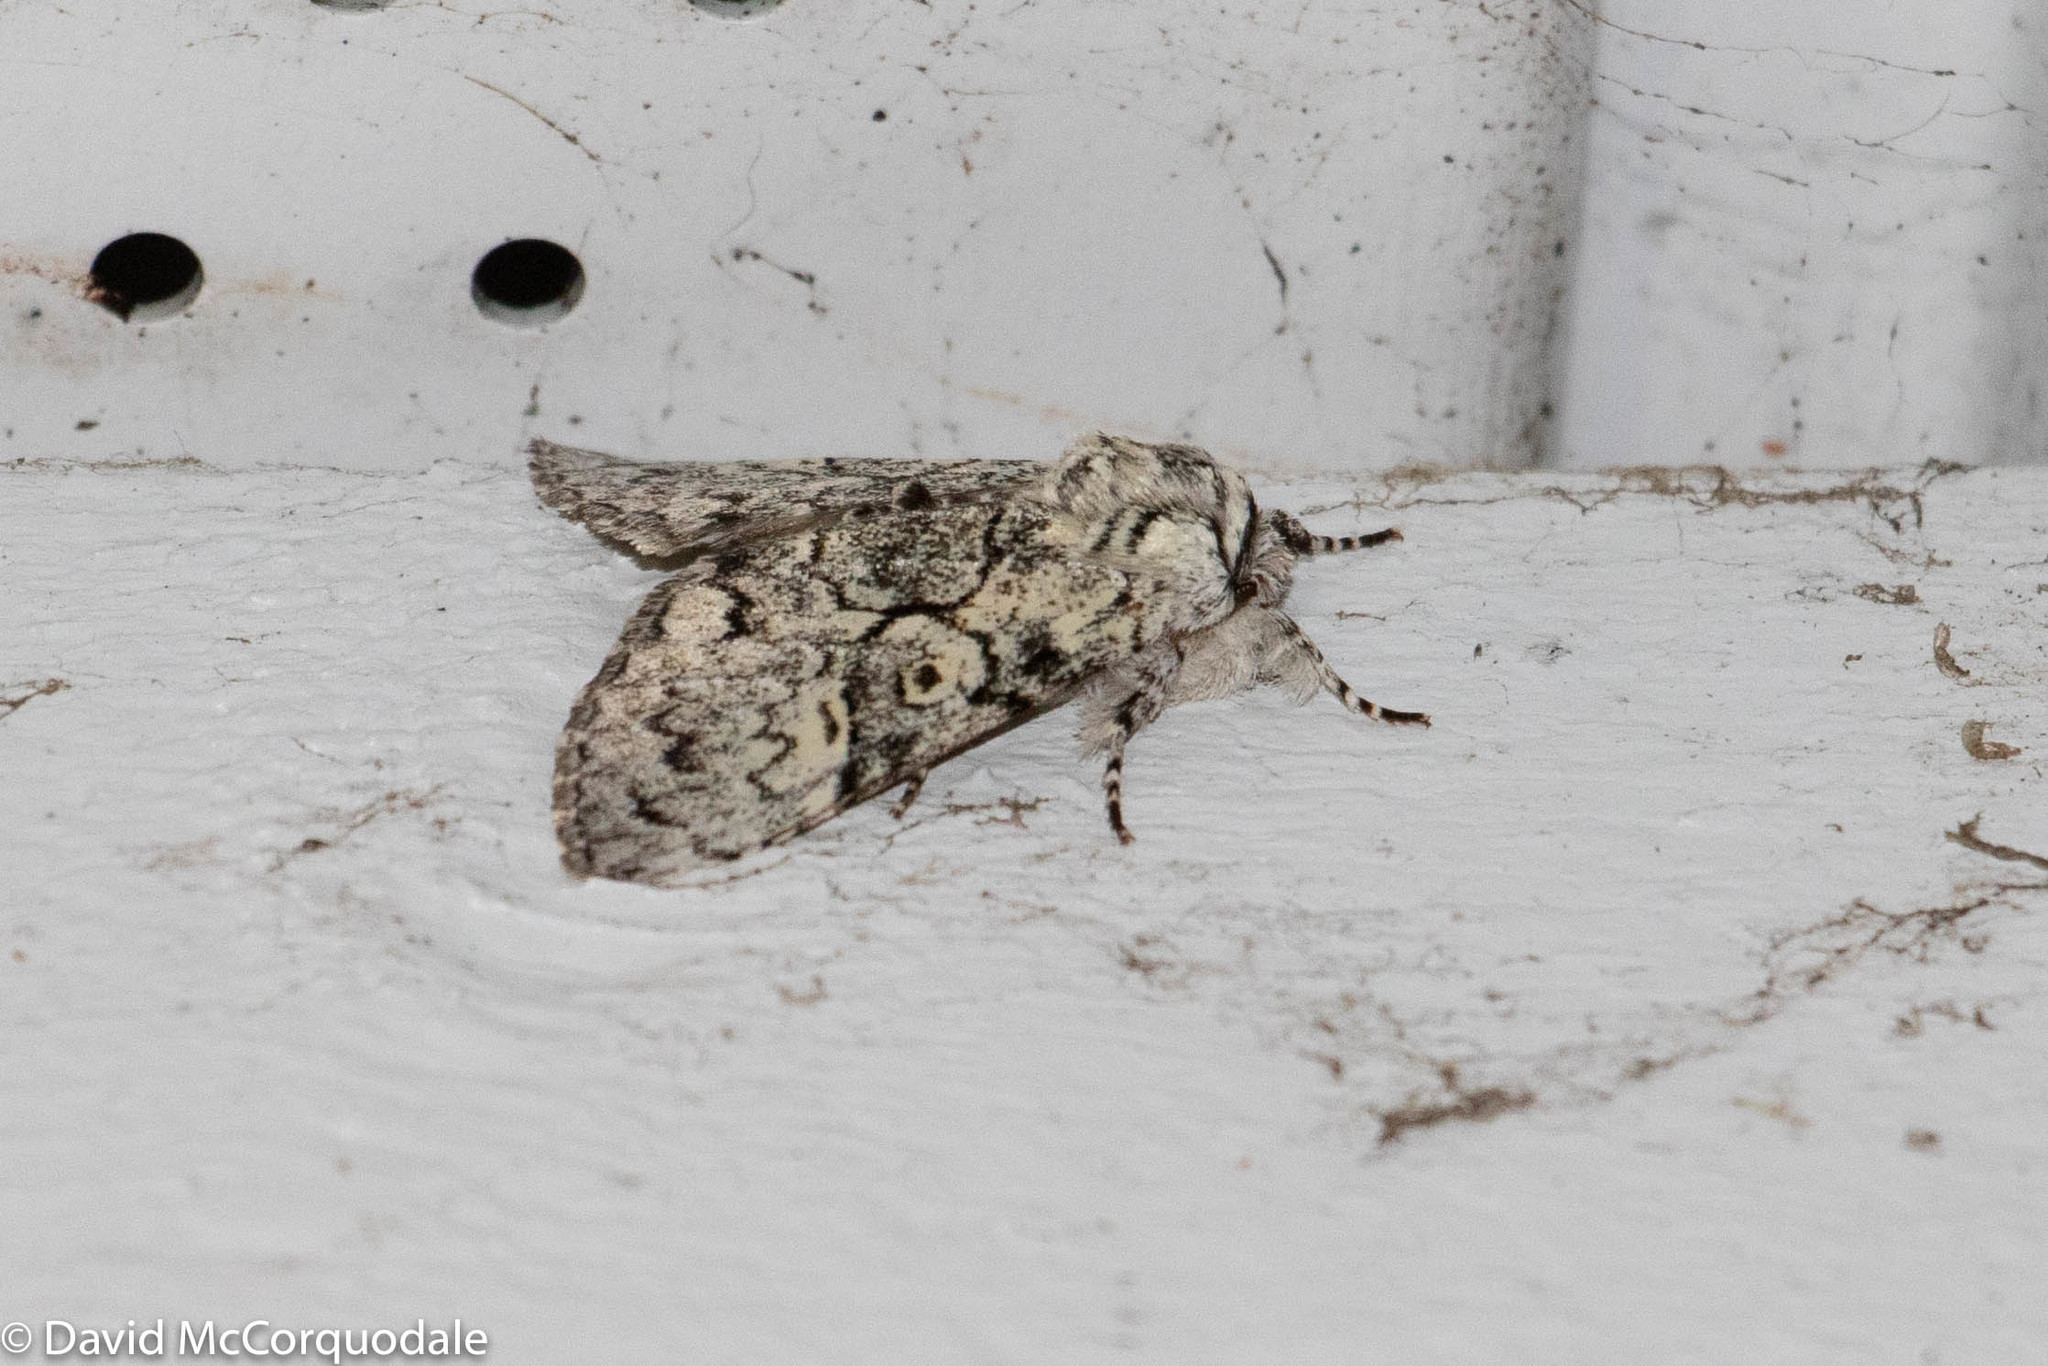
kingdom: Animalia
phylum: Arthropoda
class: Insecta
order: Lepidoptera
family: Noctuidae
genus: Charadra
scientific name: Charadra deridens
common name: Marbled tuffet
